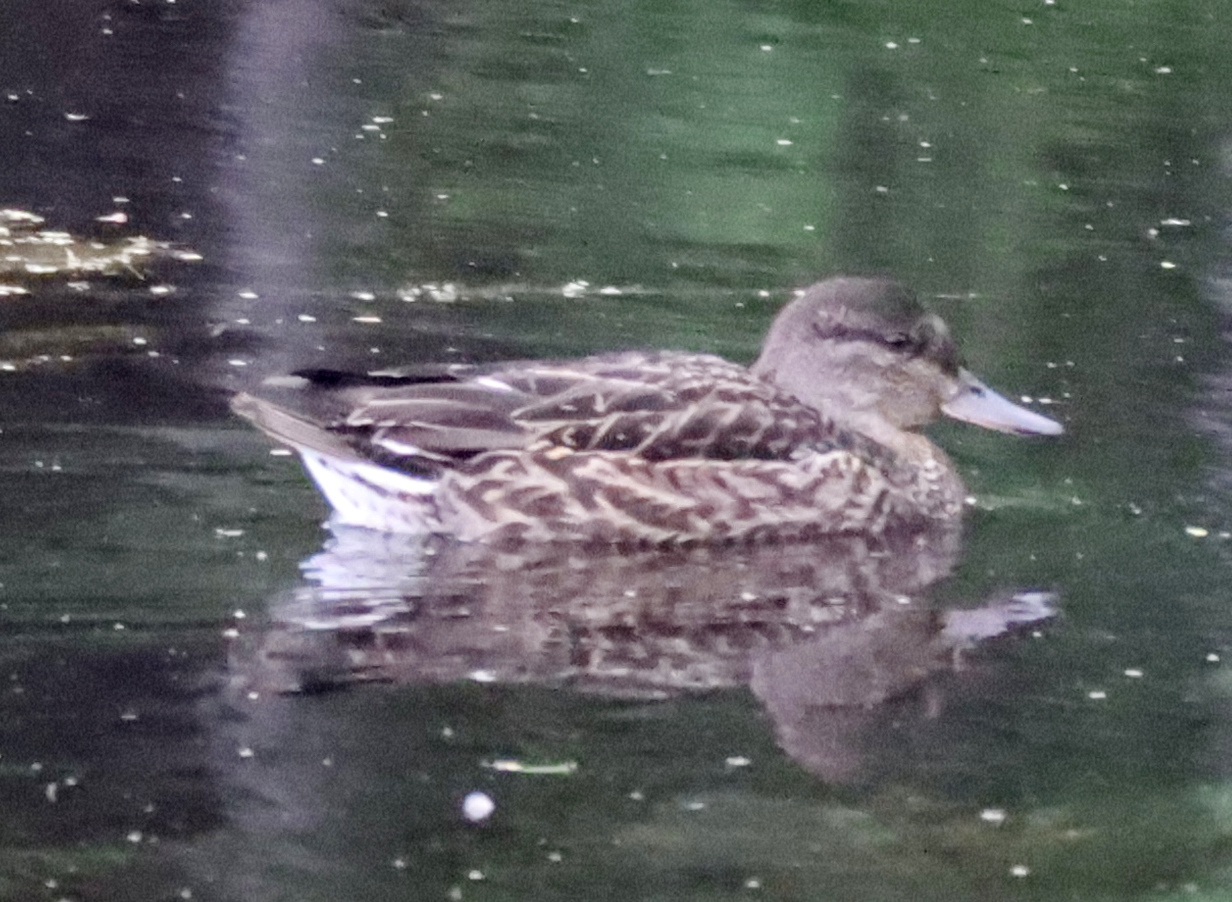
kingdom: Animalia
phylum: Chordata
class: Aves
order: Anseriformes
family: Anatidae
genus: Anas
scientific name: Anas crecca
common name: Eurasian teal
